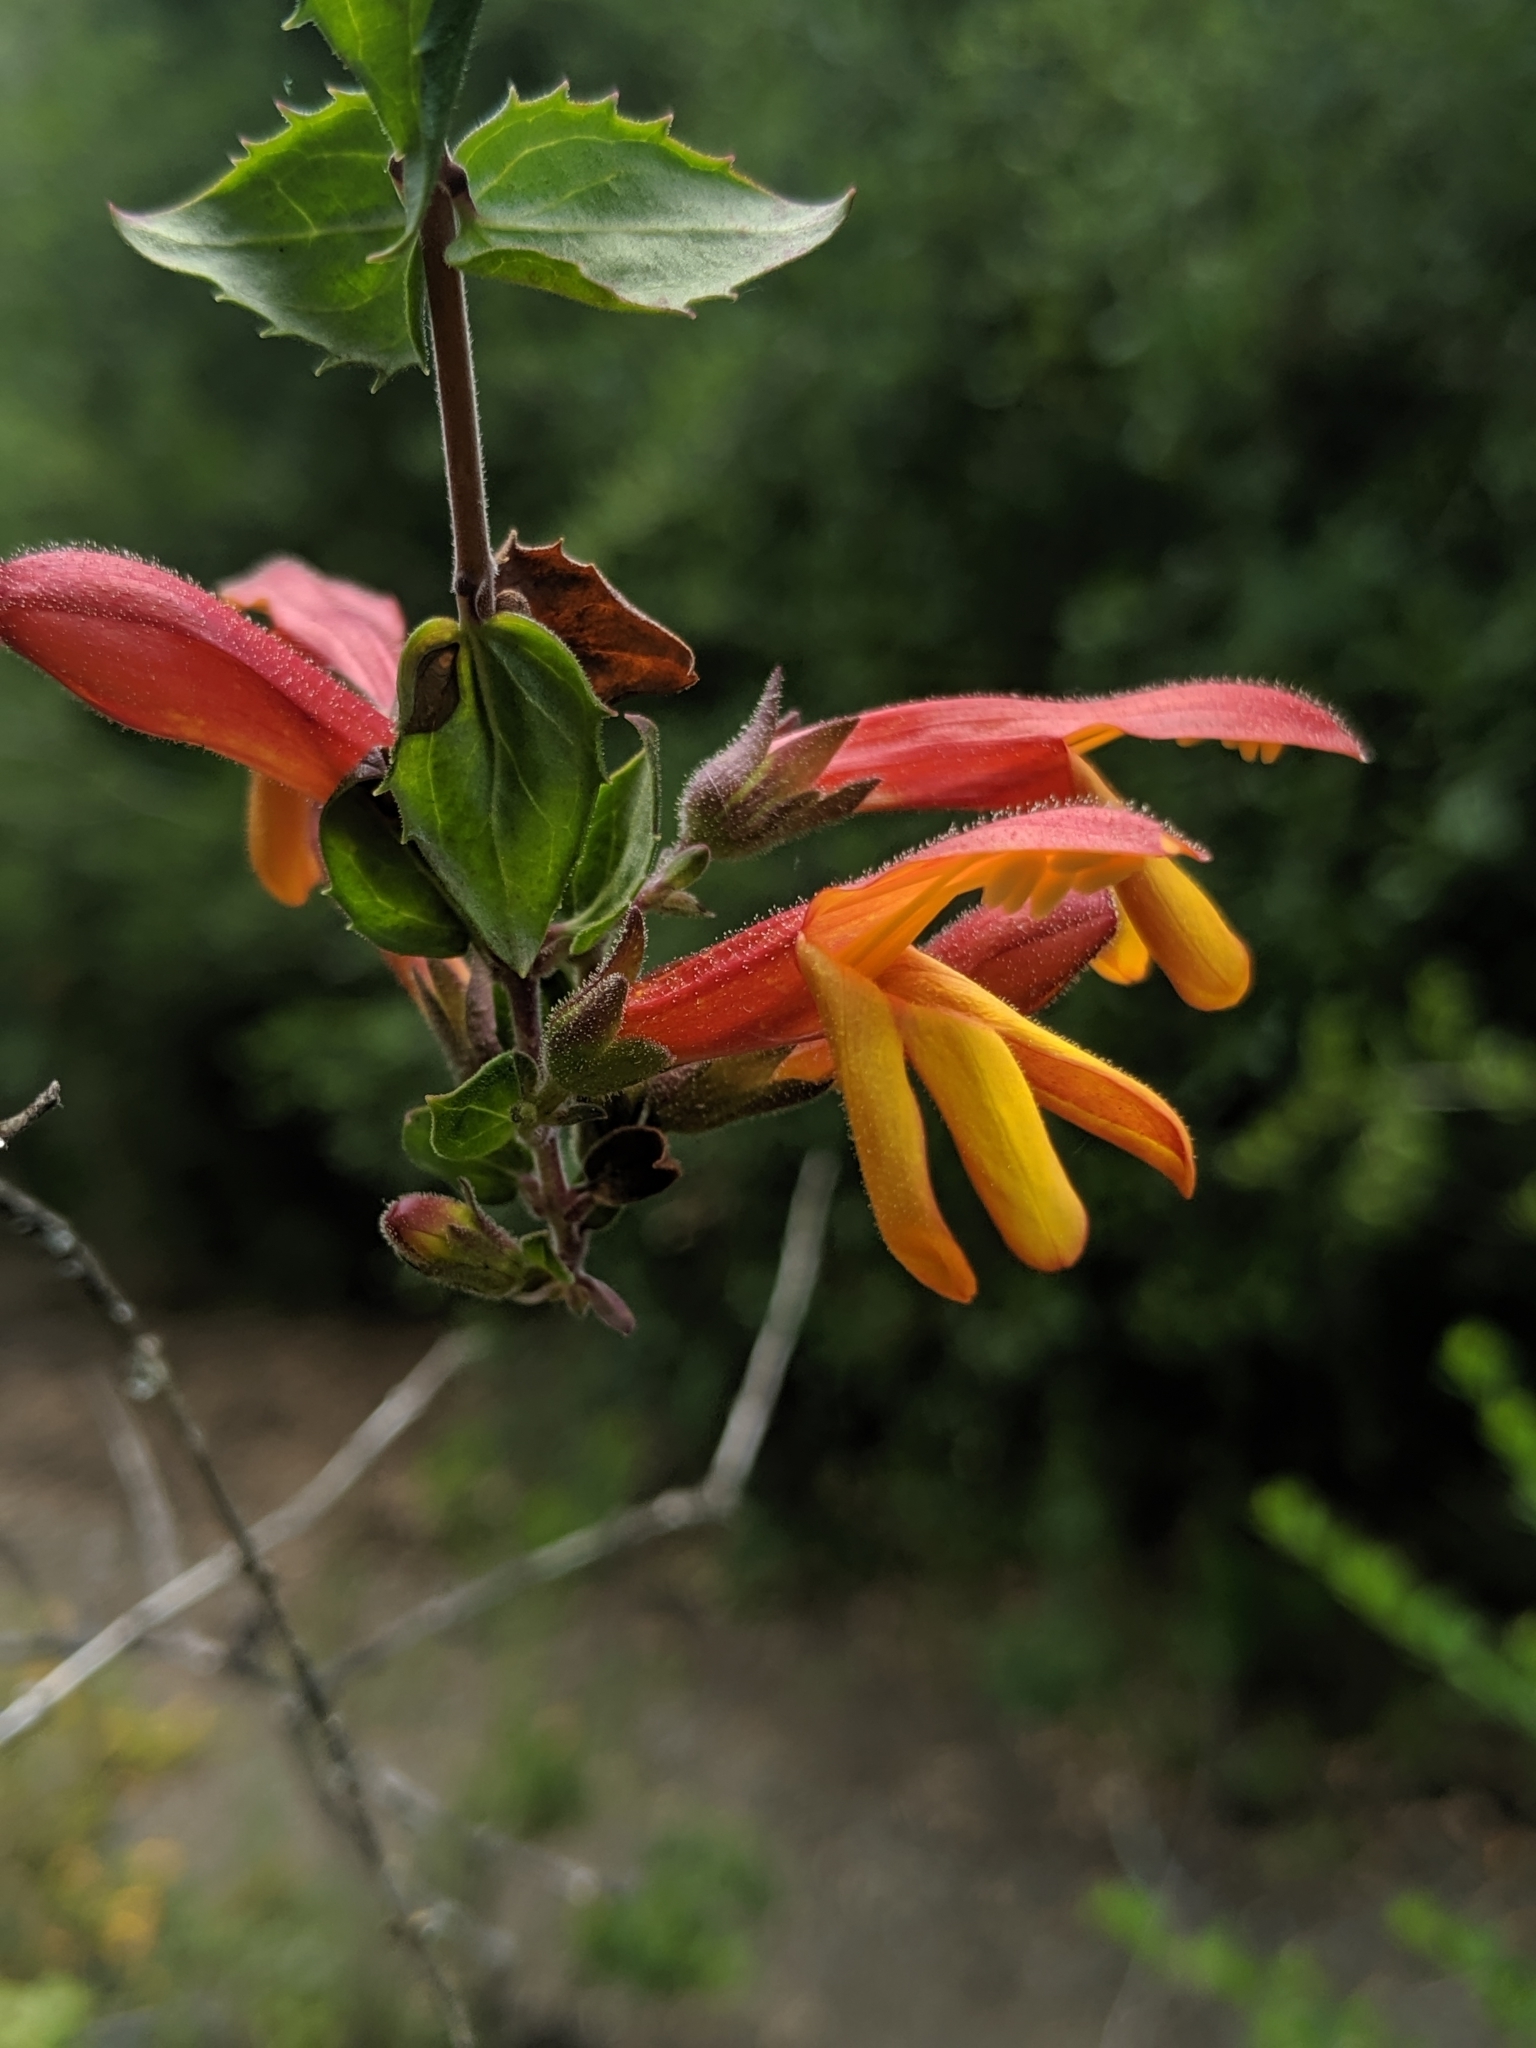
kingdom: Plantae
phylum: Tracheophyta
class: Magnoliopsida
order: Lamiales
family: Plantaginaceae
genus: Keckiella
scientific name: Keckiella cordifolia
